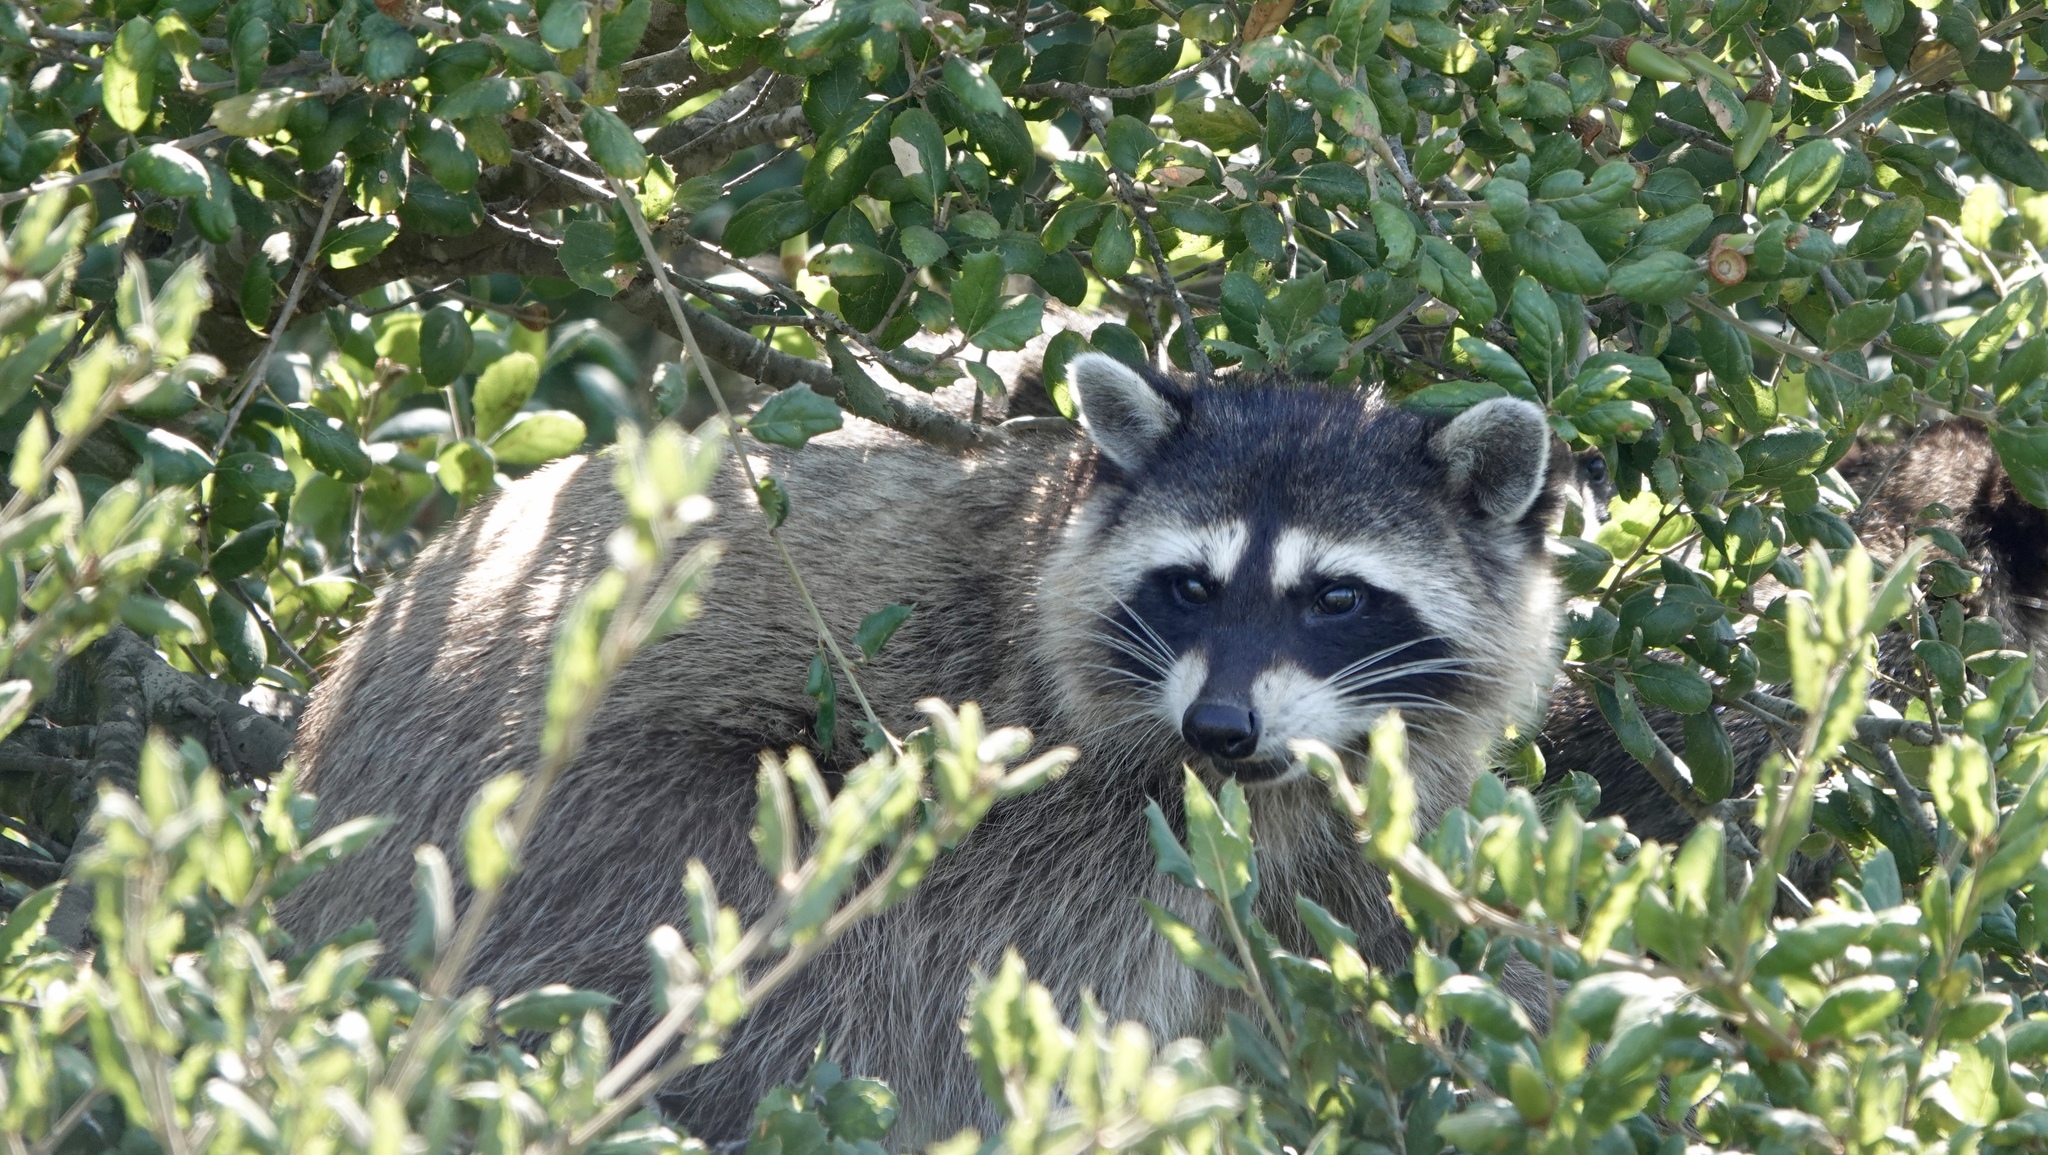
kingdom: Animalia
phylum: Chordata
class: Mammalia
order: Carnivora
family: Procyonidae
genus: Procyon
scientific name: Procyon lotor
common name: Raccoon
